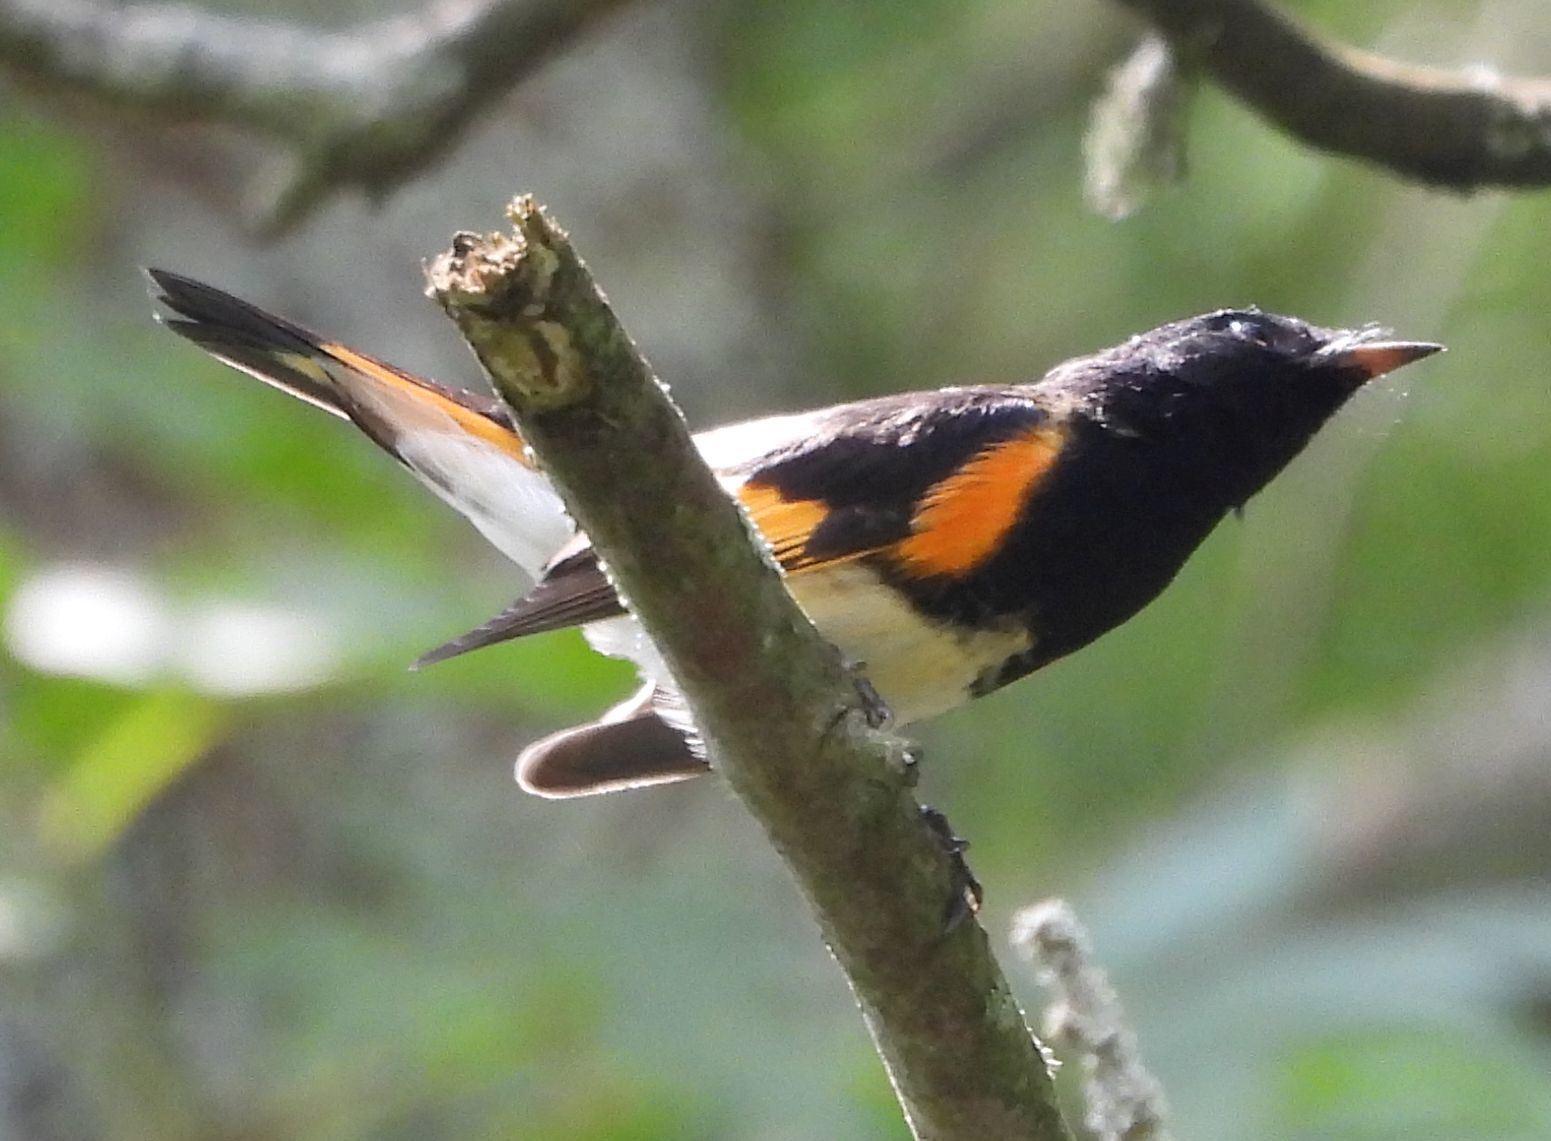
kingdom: Animalia
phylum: Chordata
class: Aves
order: Passeriformes
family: Parulidae
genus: Setophaga
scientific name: Setophaga ruticilla
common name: American redstart
